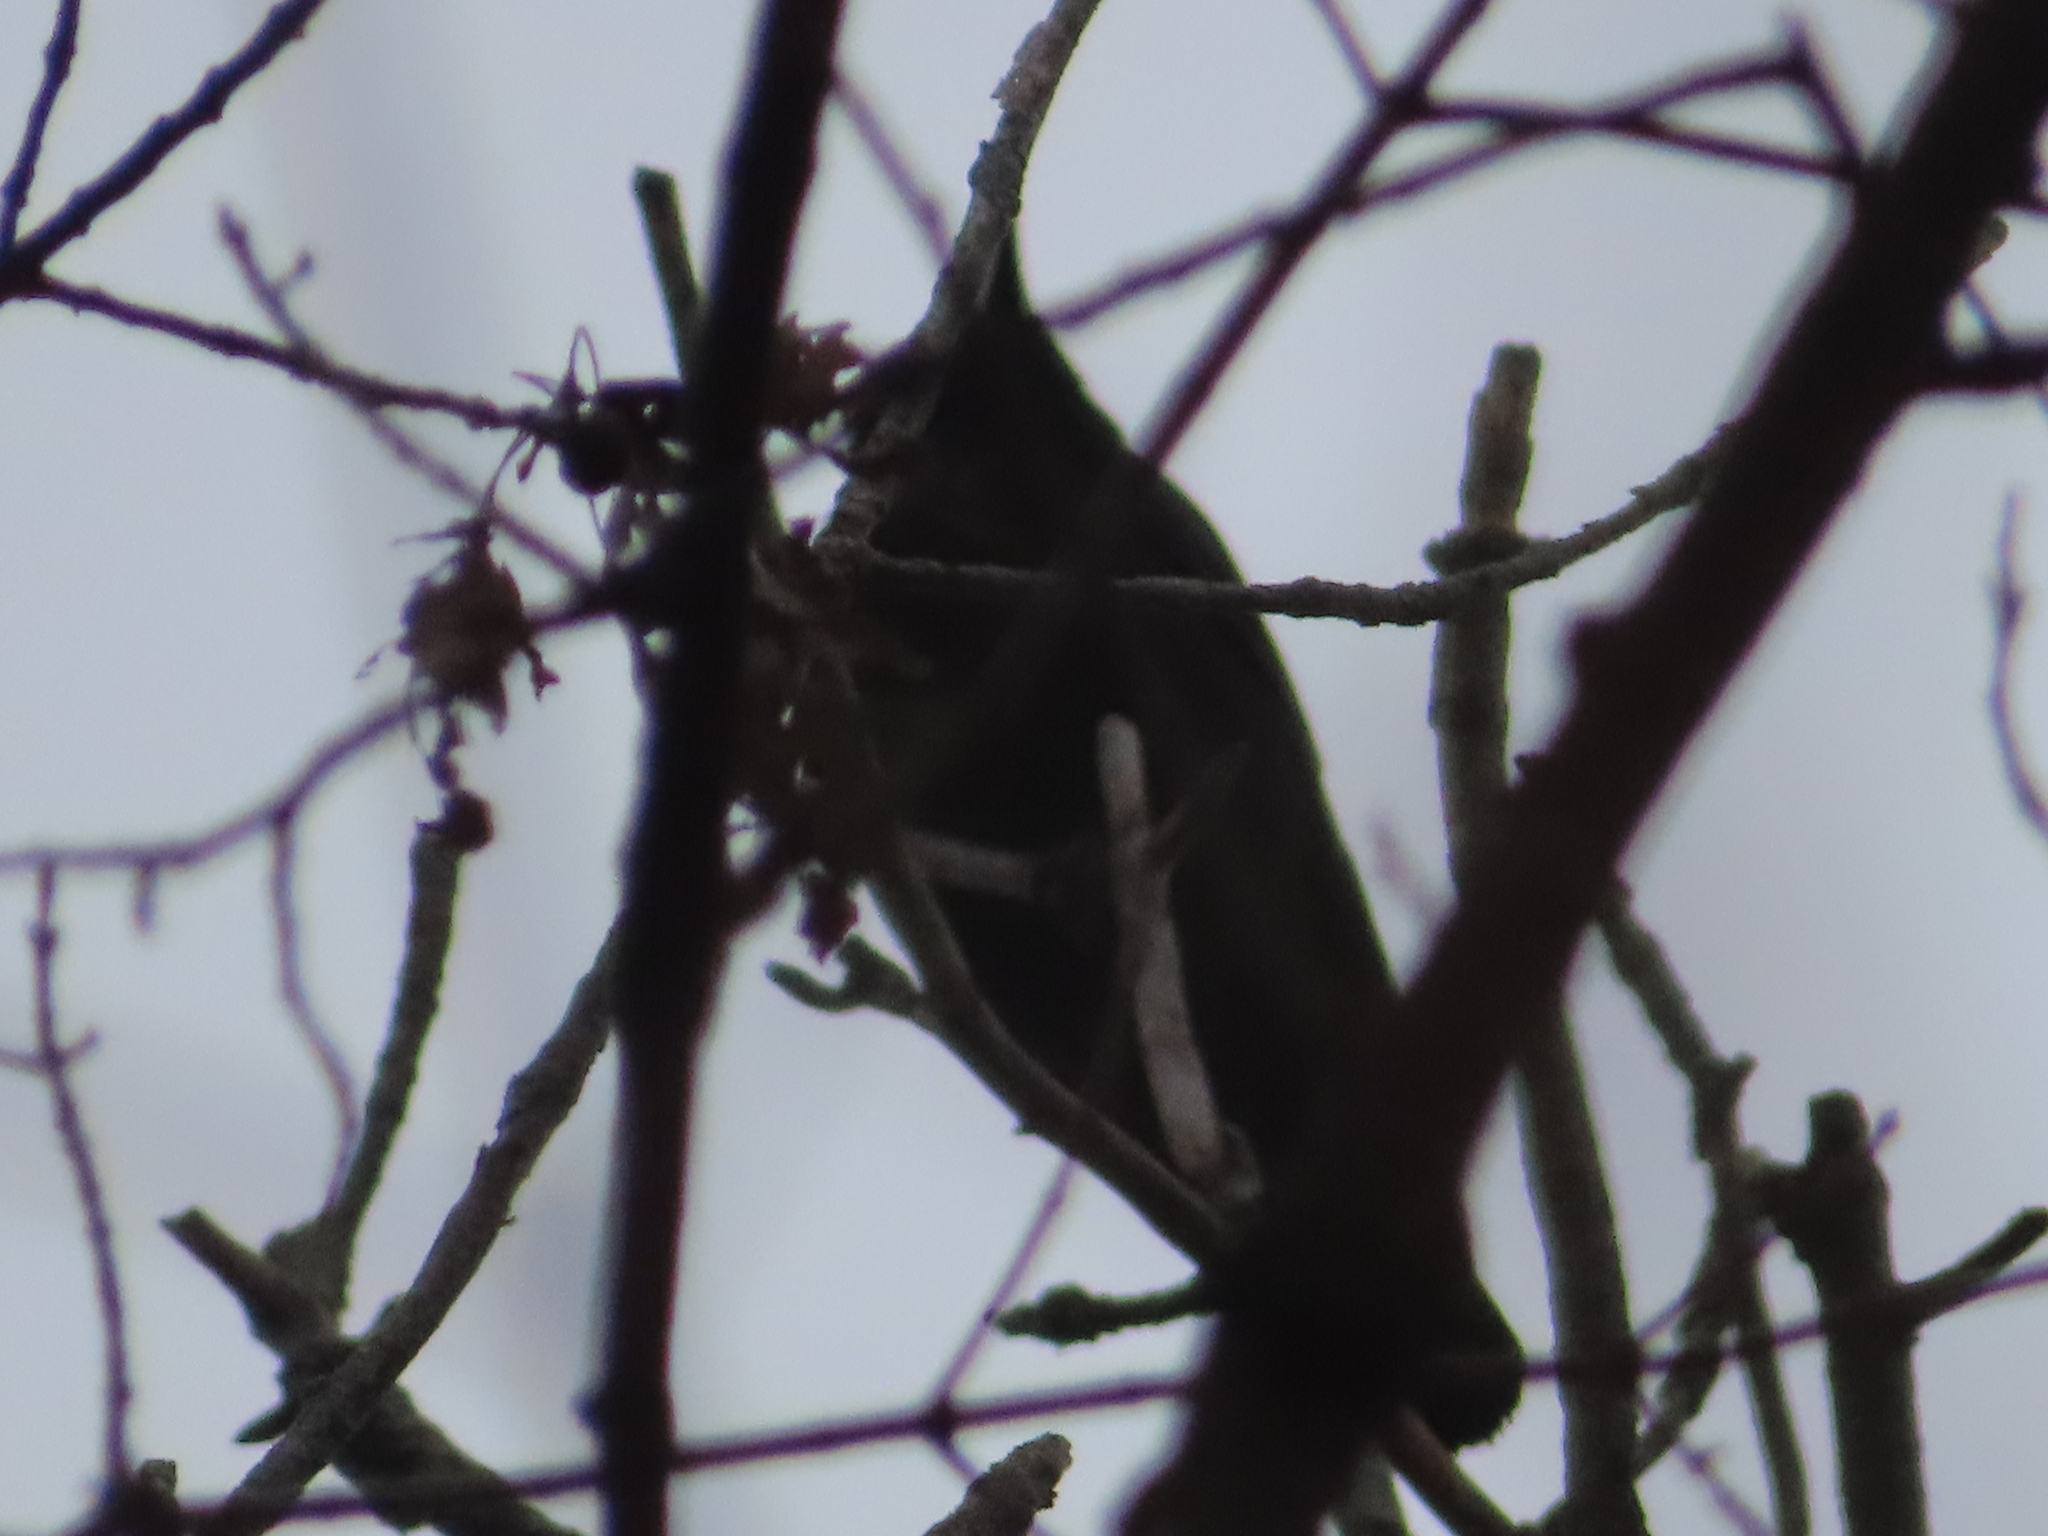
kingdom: Animalia
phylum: Chordata
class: Aves
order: Passeriformes
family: Corvidae
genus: Corvus
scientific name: Corvus brachyrhynchos
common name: American crow
